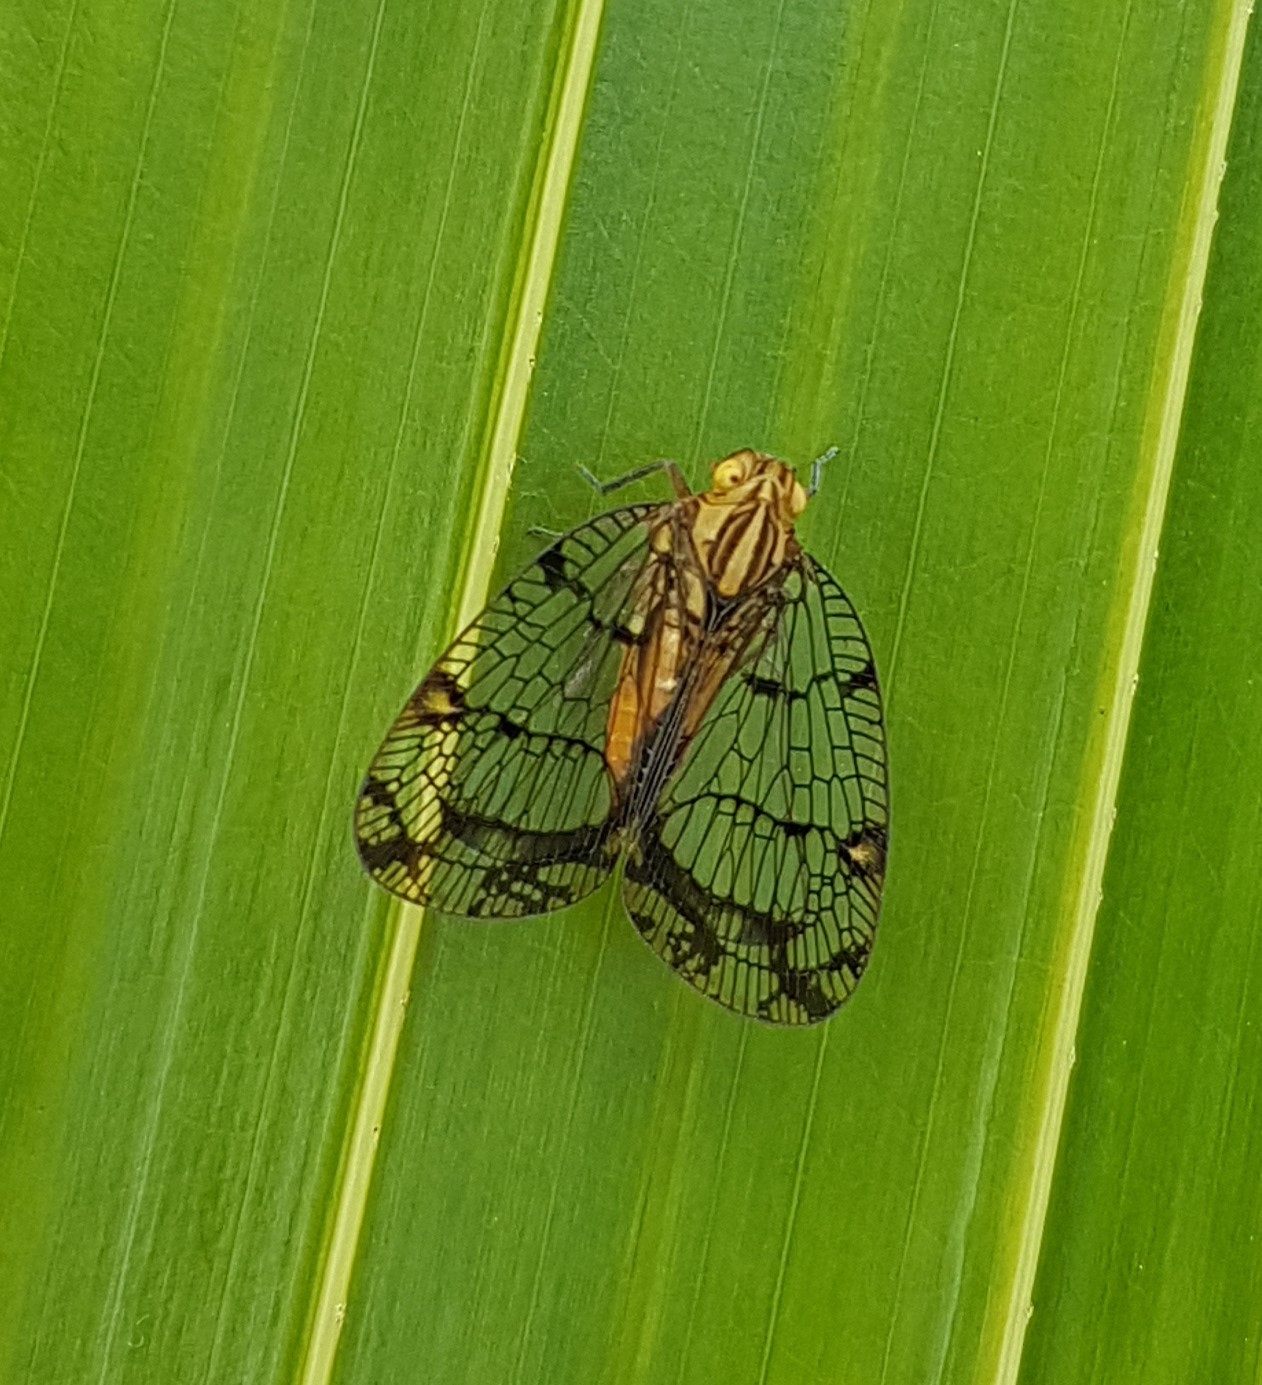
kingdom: Animalia
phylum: Arthropoda
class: Insecta
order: Hemiptera
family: Nogodinidae
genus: Biolleyana
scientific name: Biolleyana costalis
